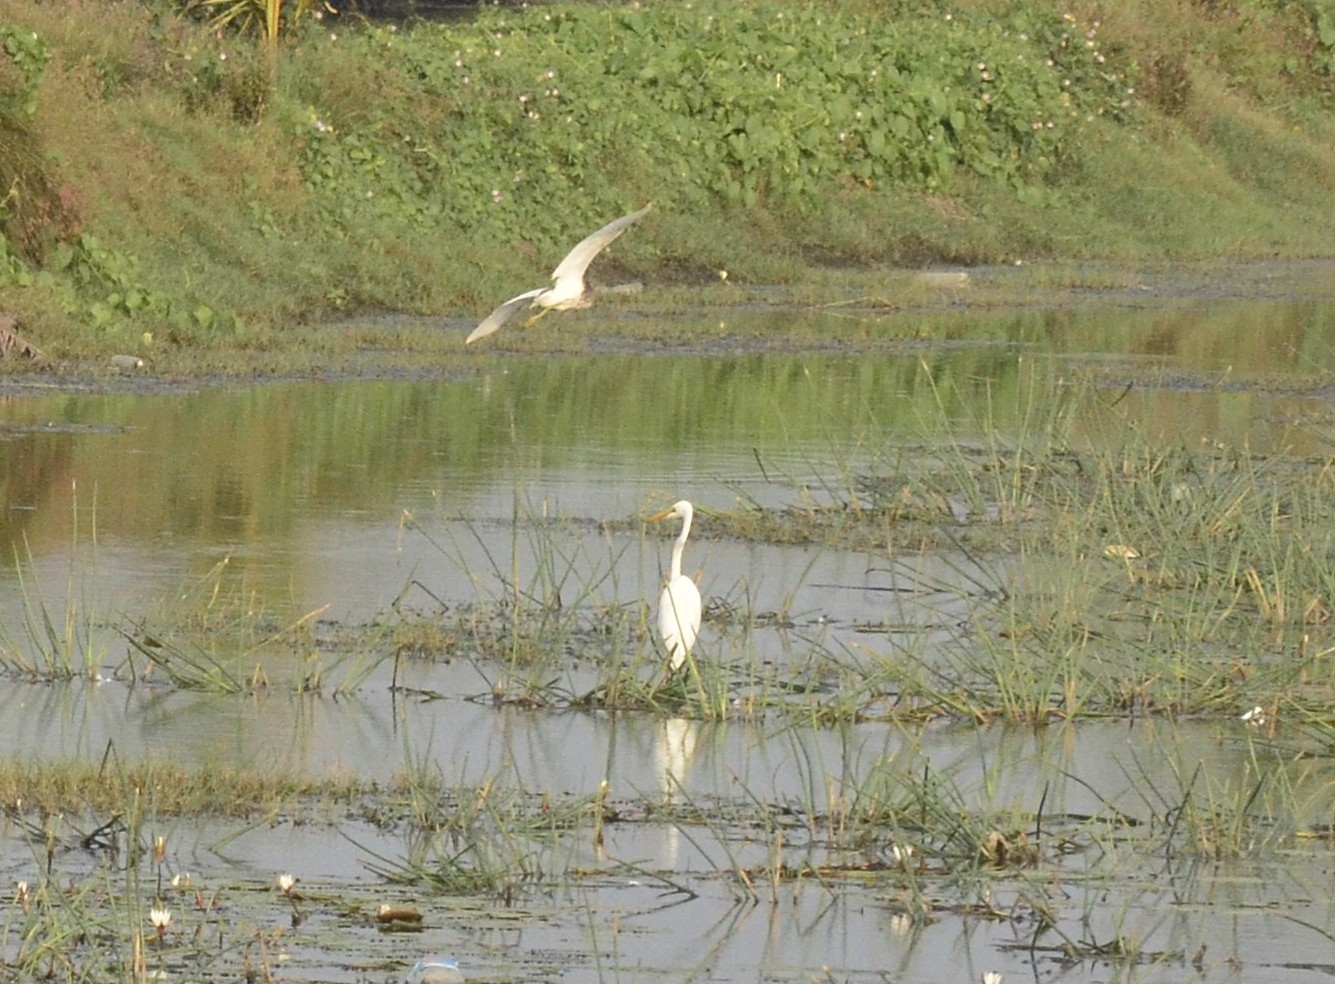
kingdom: Animalia
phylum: Chordata
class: Aves
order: Pelecaniformes
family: Ardeidae
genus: Egretta
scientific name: Egretta intermedia
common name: Intermediate egret
